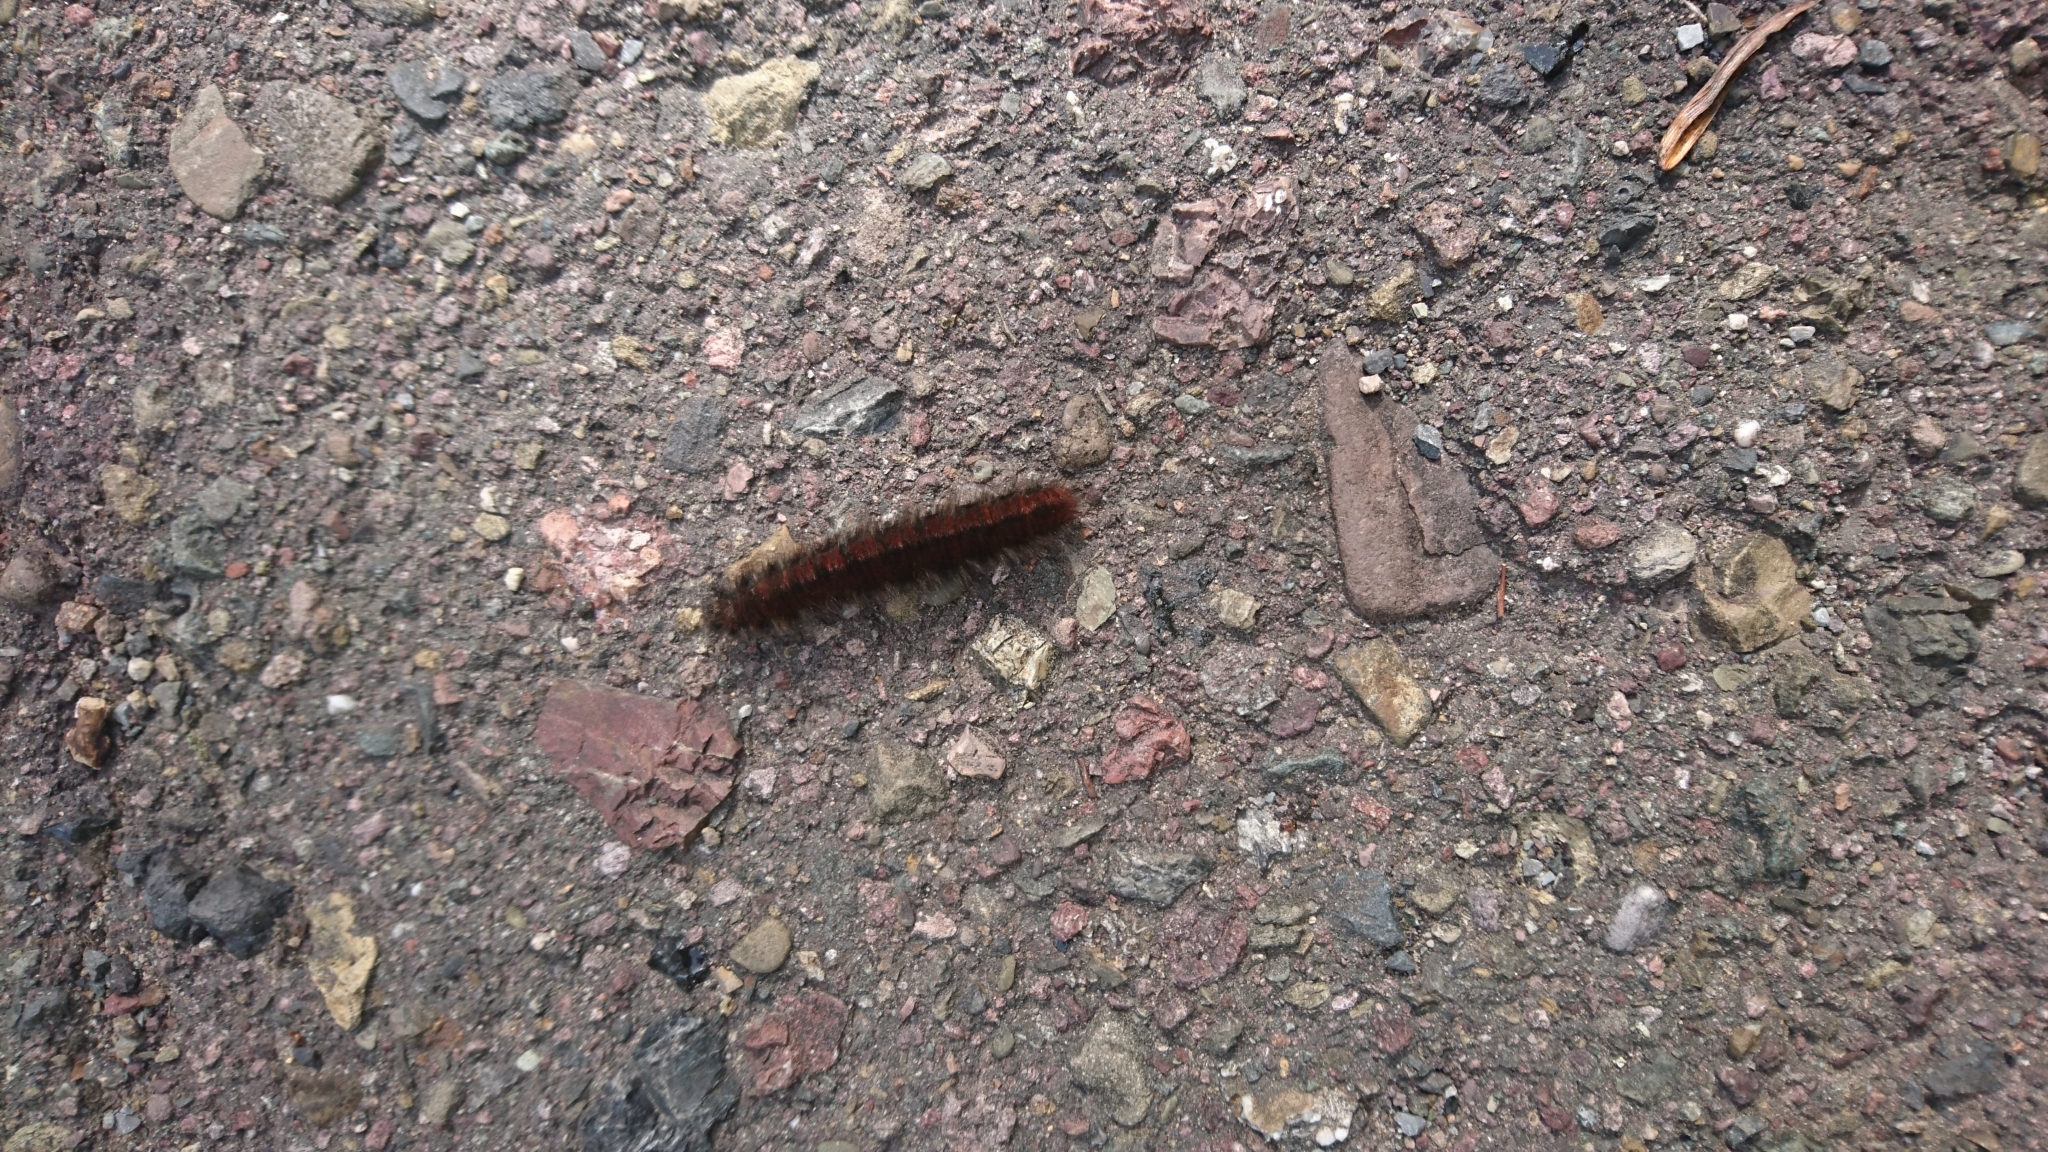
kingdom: Animalia
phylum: Arthropoda
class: Insecta
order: Lepidoptera
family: Lasiocampidae
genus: Macrothylacia
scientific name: Macrothylacia rubi
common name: Fox moth
